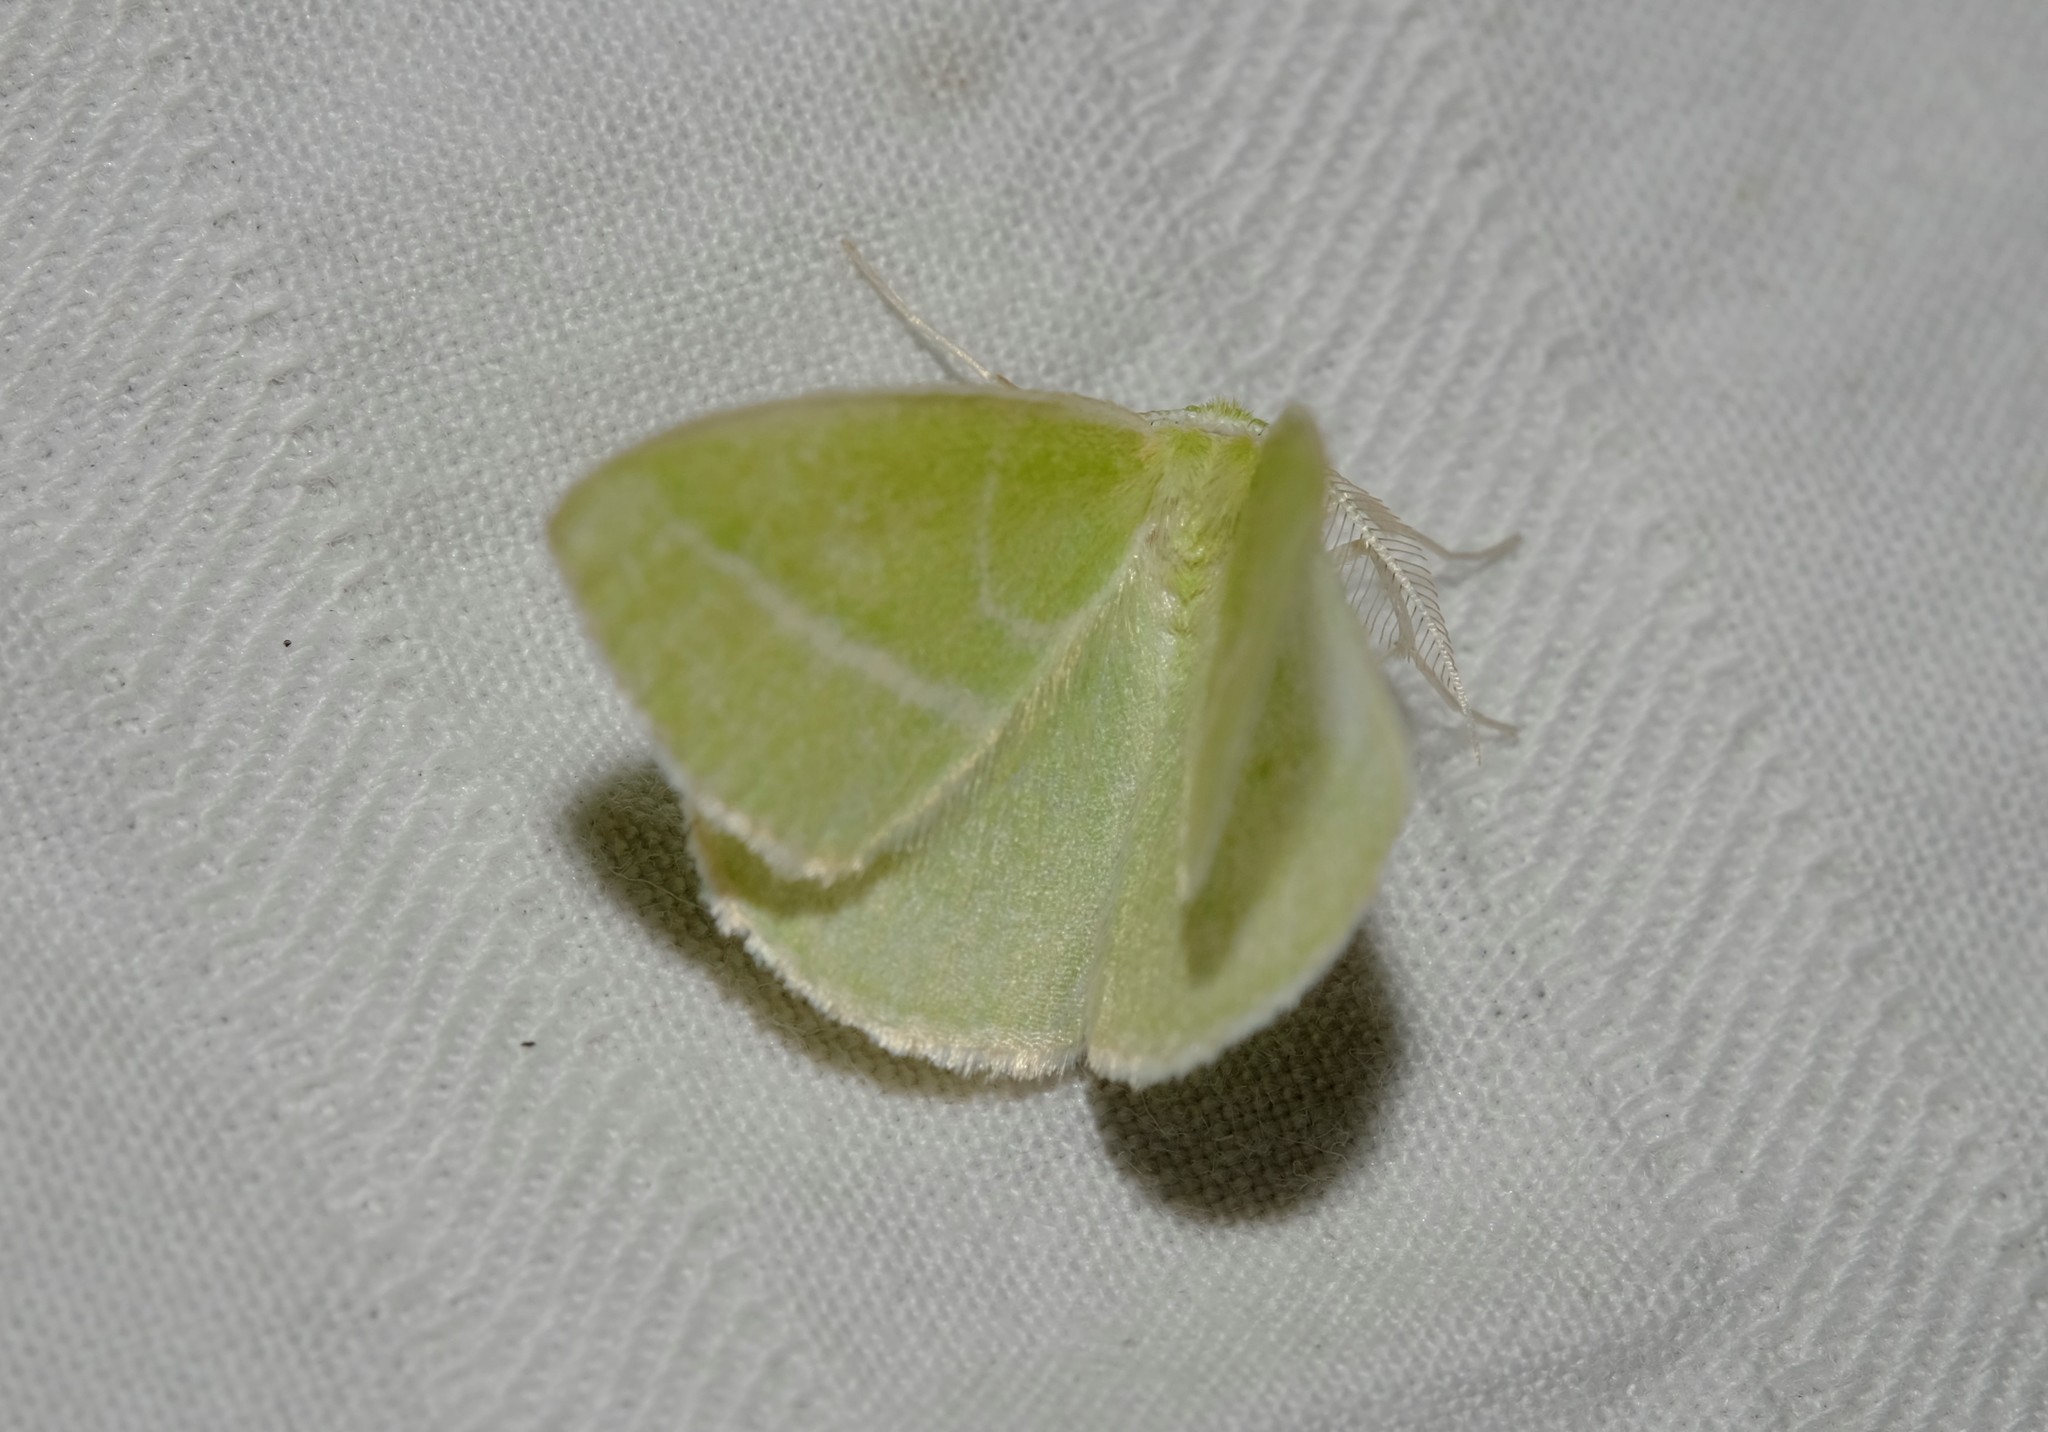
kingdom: Animalia
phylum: Arthropoda
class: Insecta
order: Lepidoptera
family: Geometridae
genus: Iulops
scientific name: Iulops argocrana
